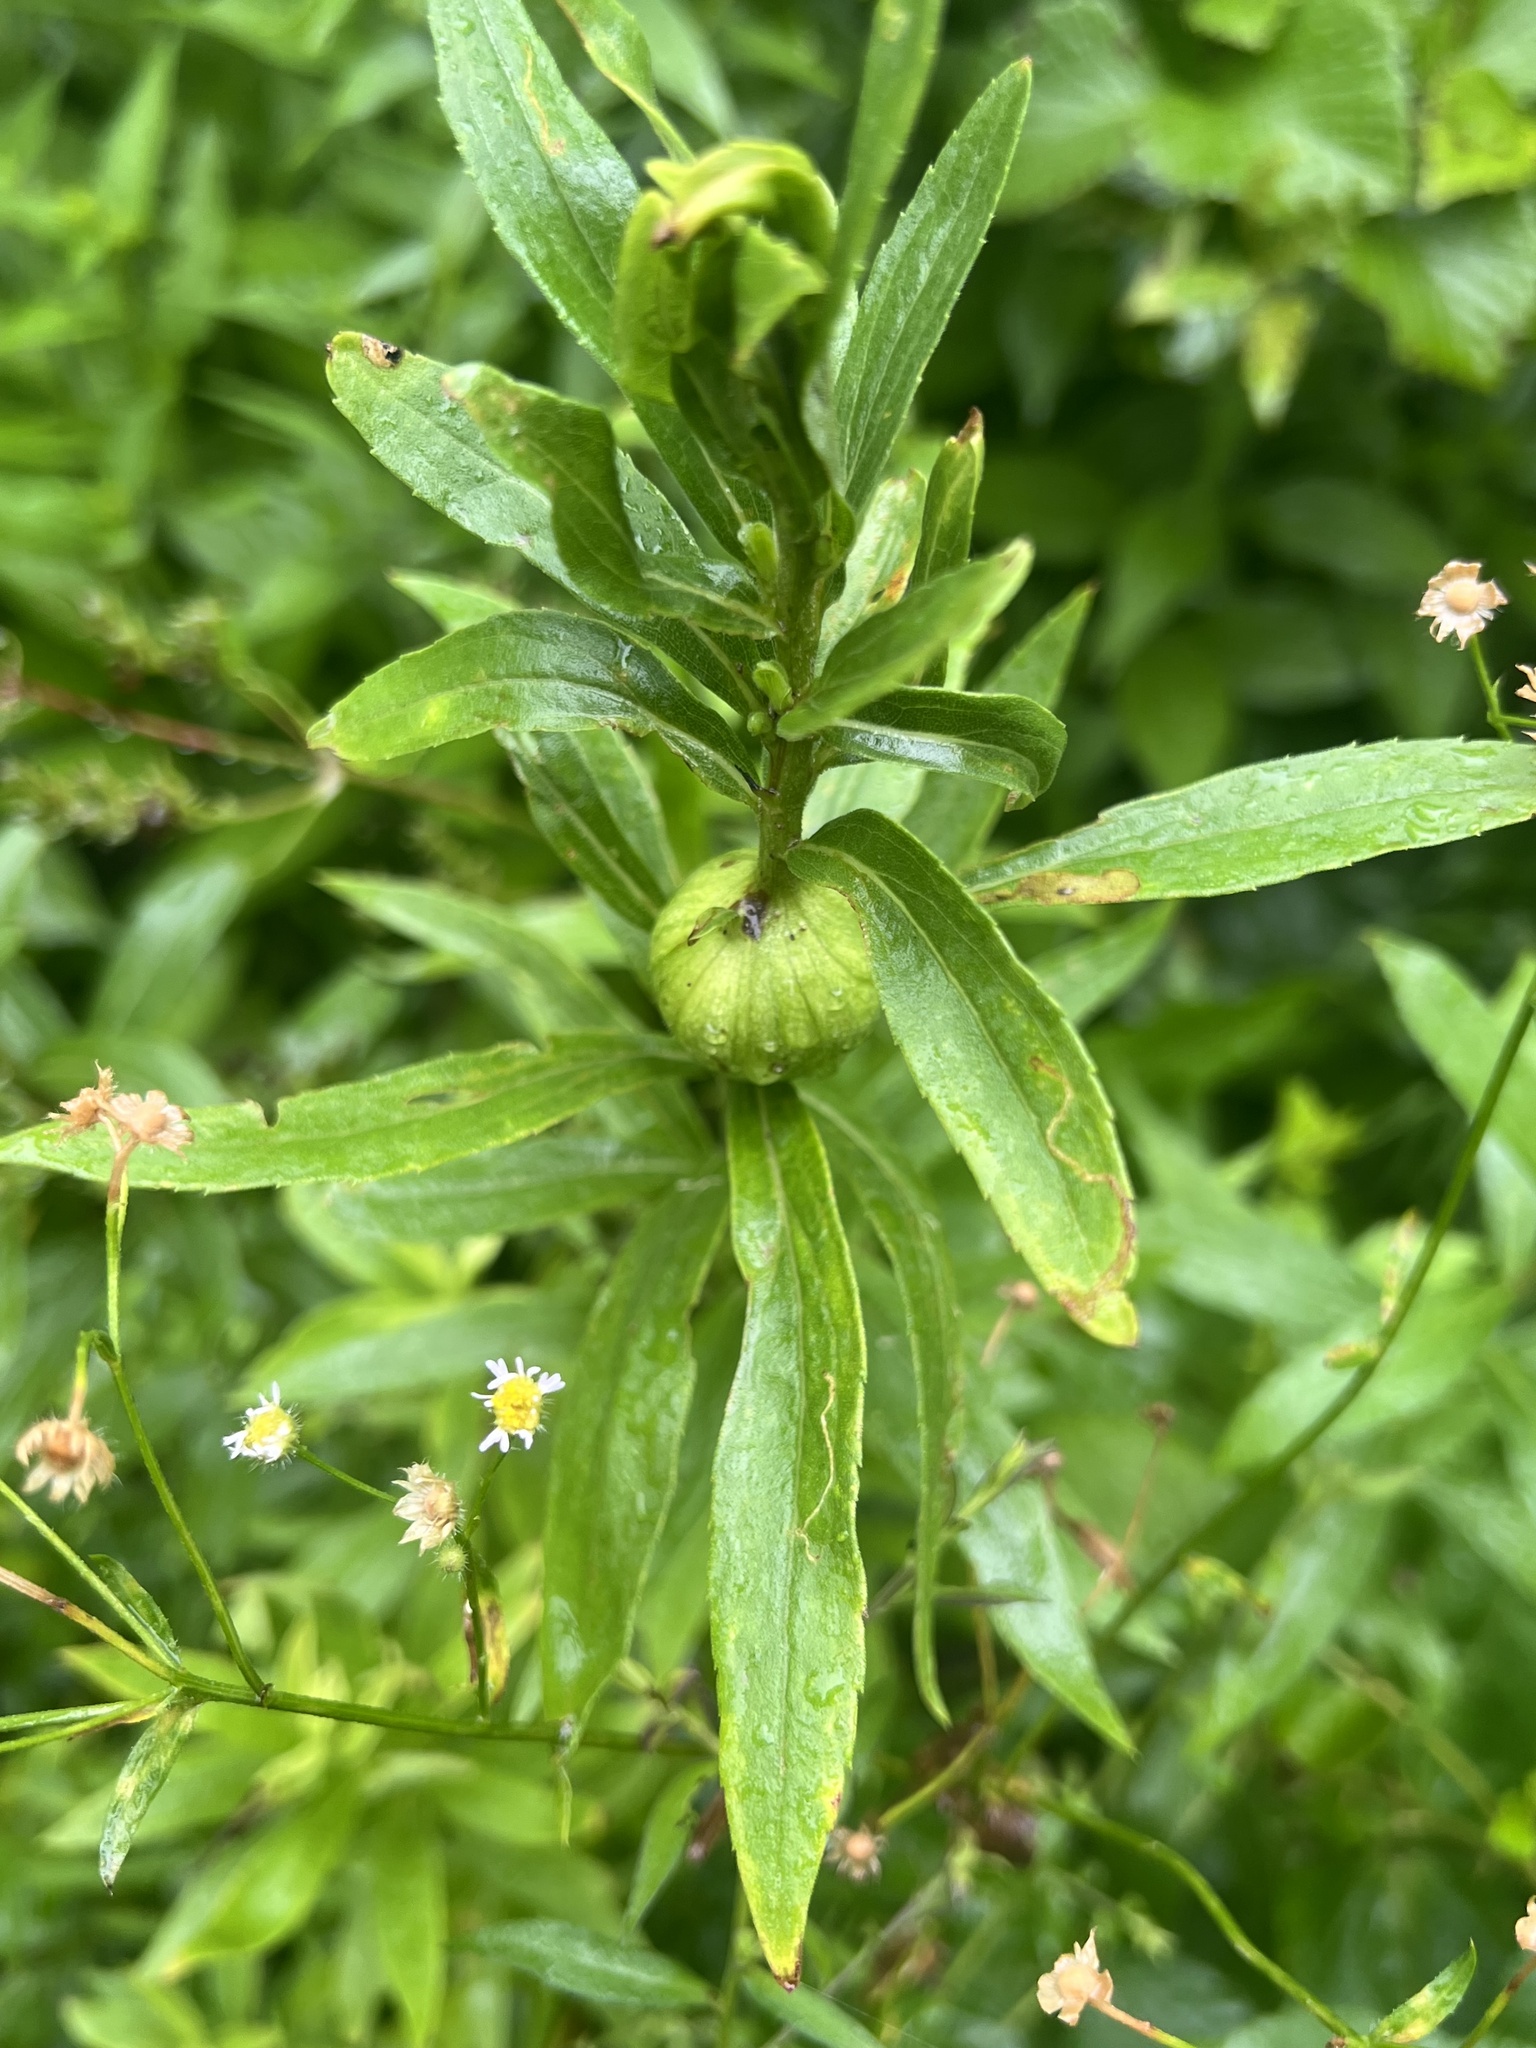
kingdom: Animalia
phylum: Arthropoda
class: Insecta
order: Diptera
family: Tephritidae
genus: Eurosta
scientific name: Eurosta solidaginis
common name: Goldenrod gall fly
